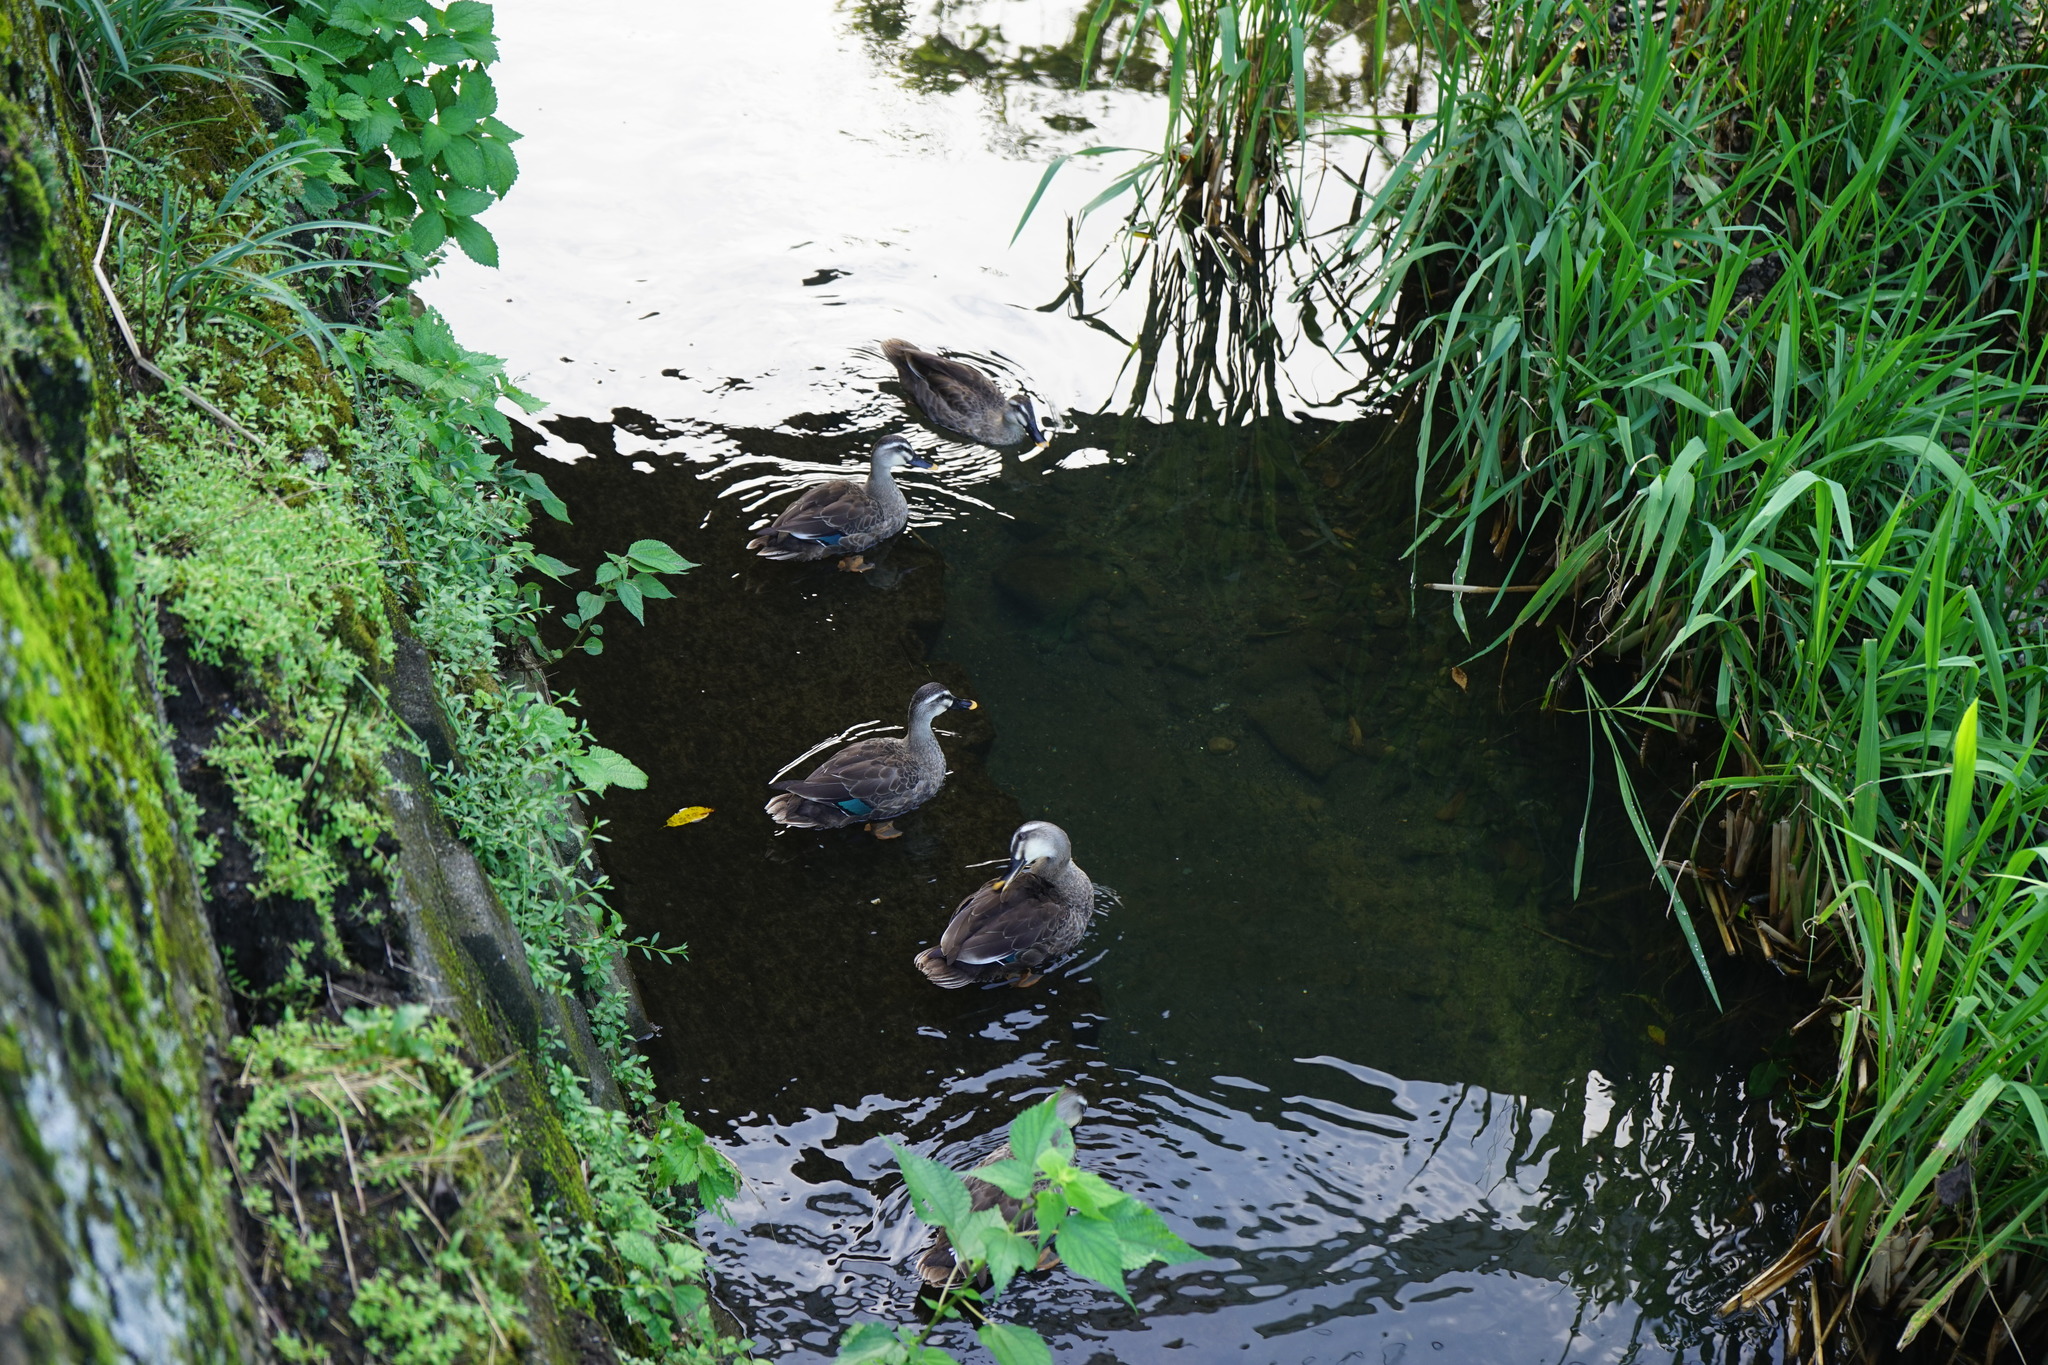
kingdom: Animalia
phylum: Chordata
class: Aves
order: Anseriformes
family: Anatidae
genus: Anas
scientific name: Anas zonorhyncha
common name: Eastern spot-billed duck
